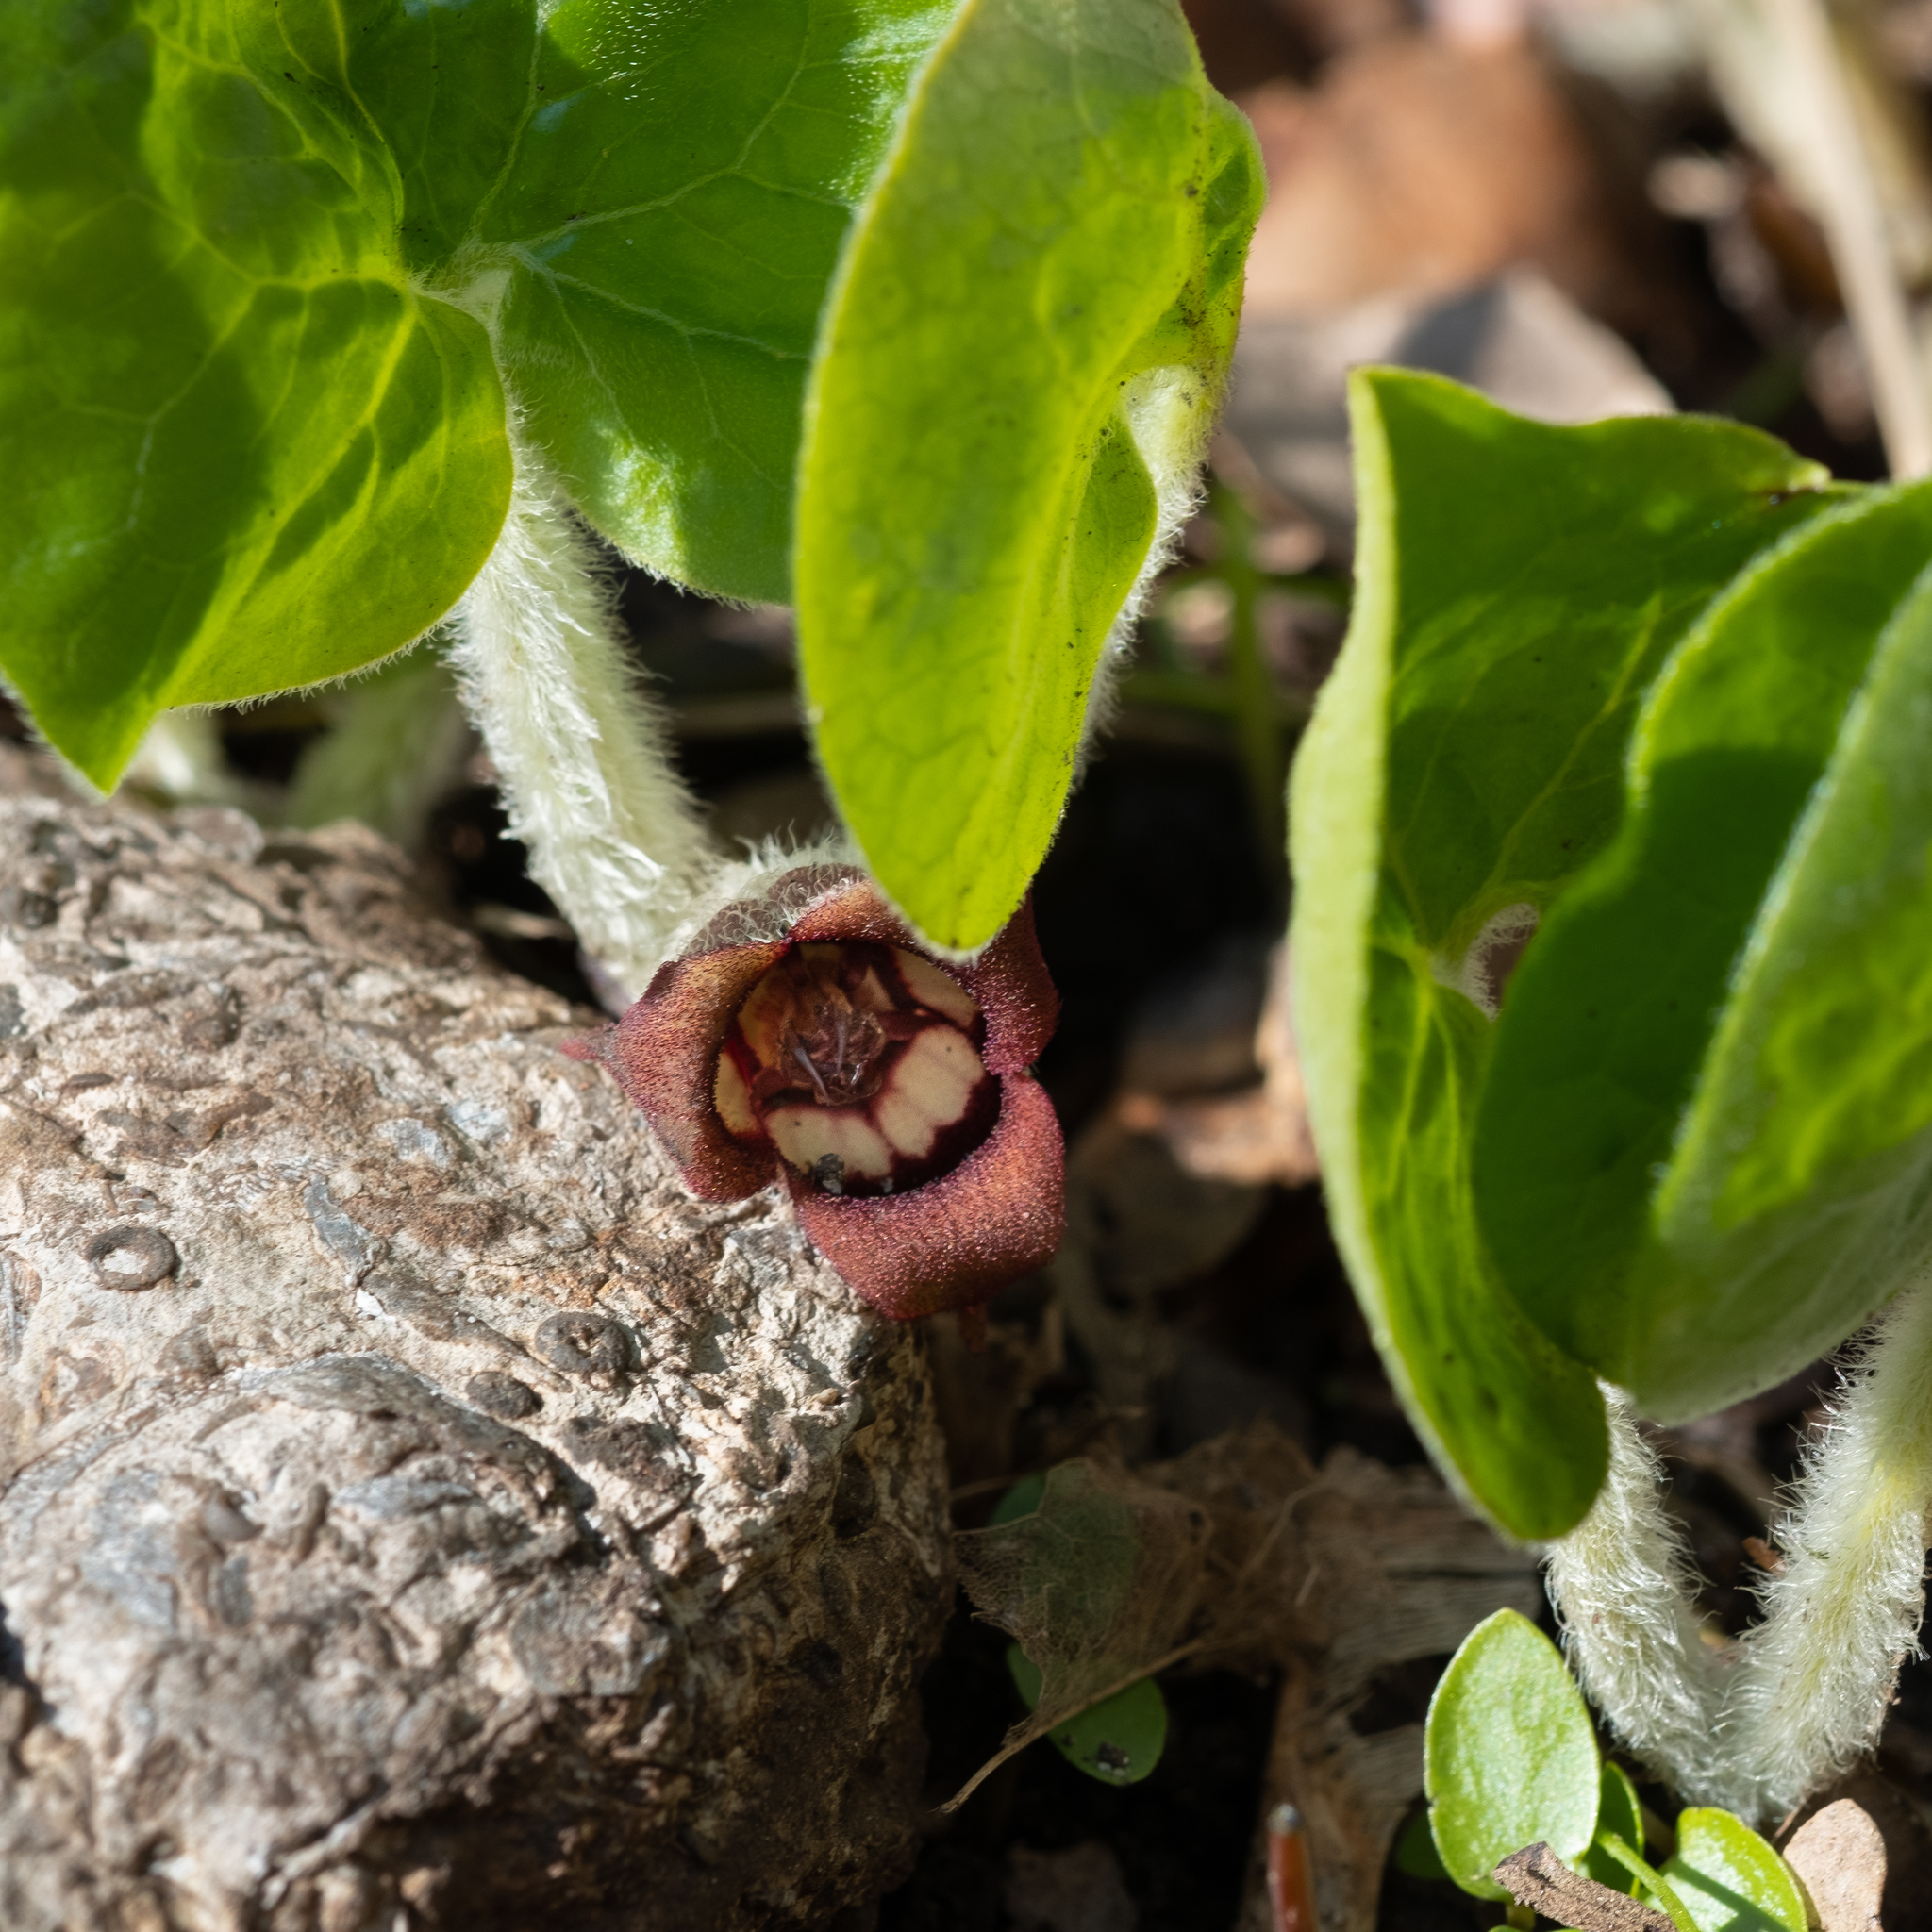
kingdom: Plantae
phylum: Tracheophyta
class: Magnoliopsida
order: Piperales
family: Aristolochiaceae
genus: Asarum
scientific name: Asarum canadense
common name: Wild ginger
